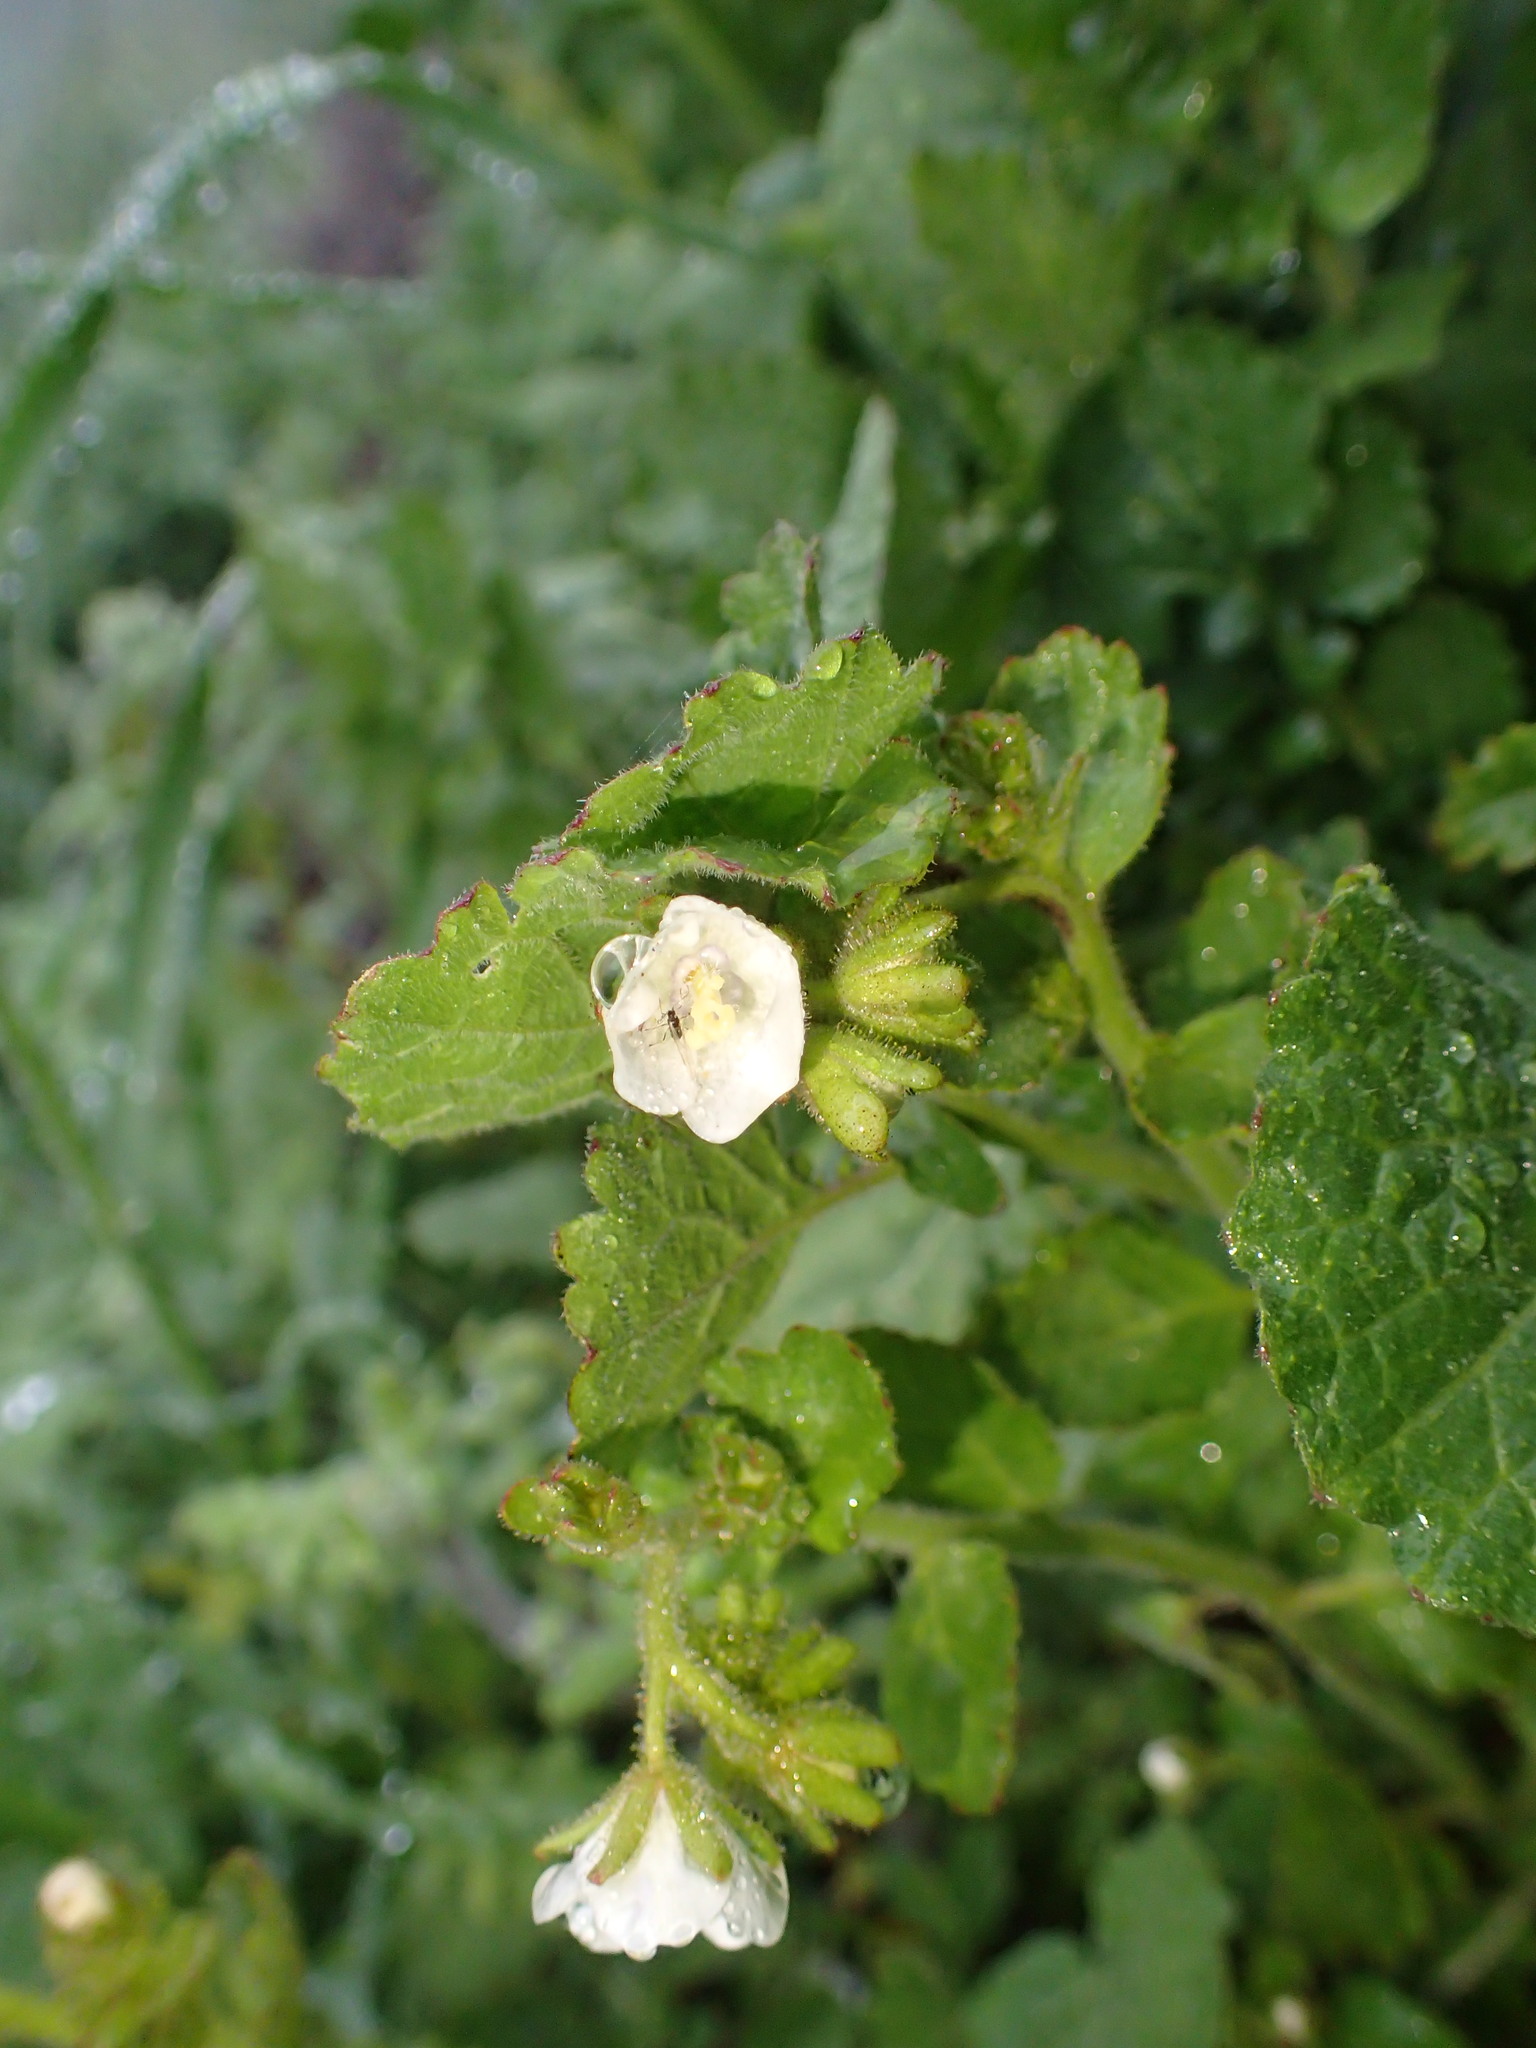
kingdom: Plantae
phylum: Tracheophyta
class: Magnoliopsida
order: Boraginales
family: Hydrophyllaceae
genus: Phacelia
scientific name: Phacelia viscida
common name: Sticky phacelia
